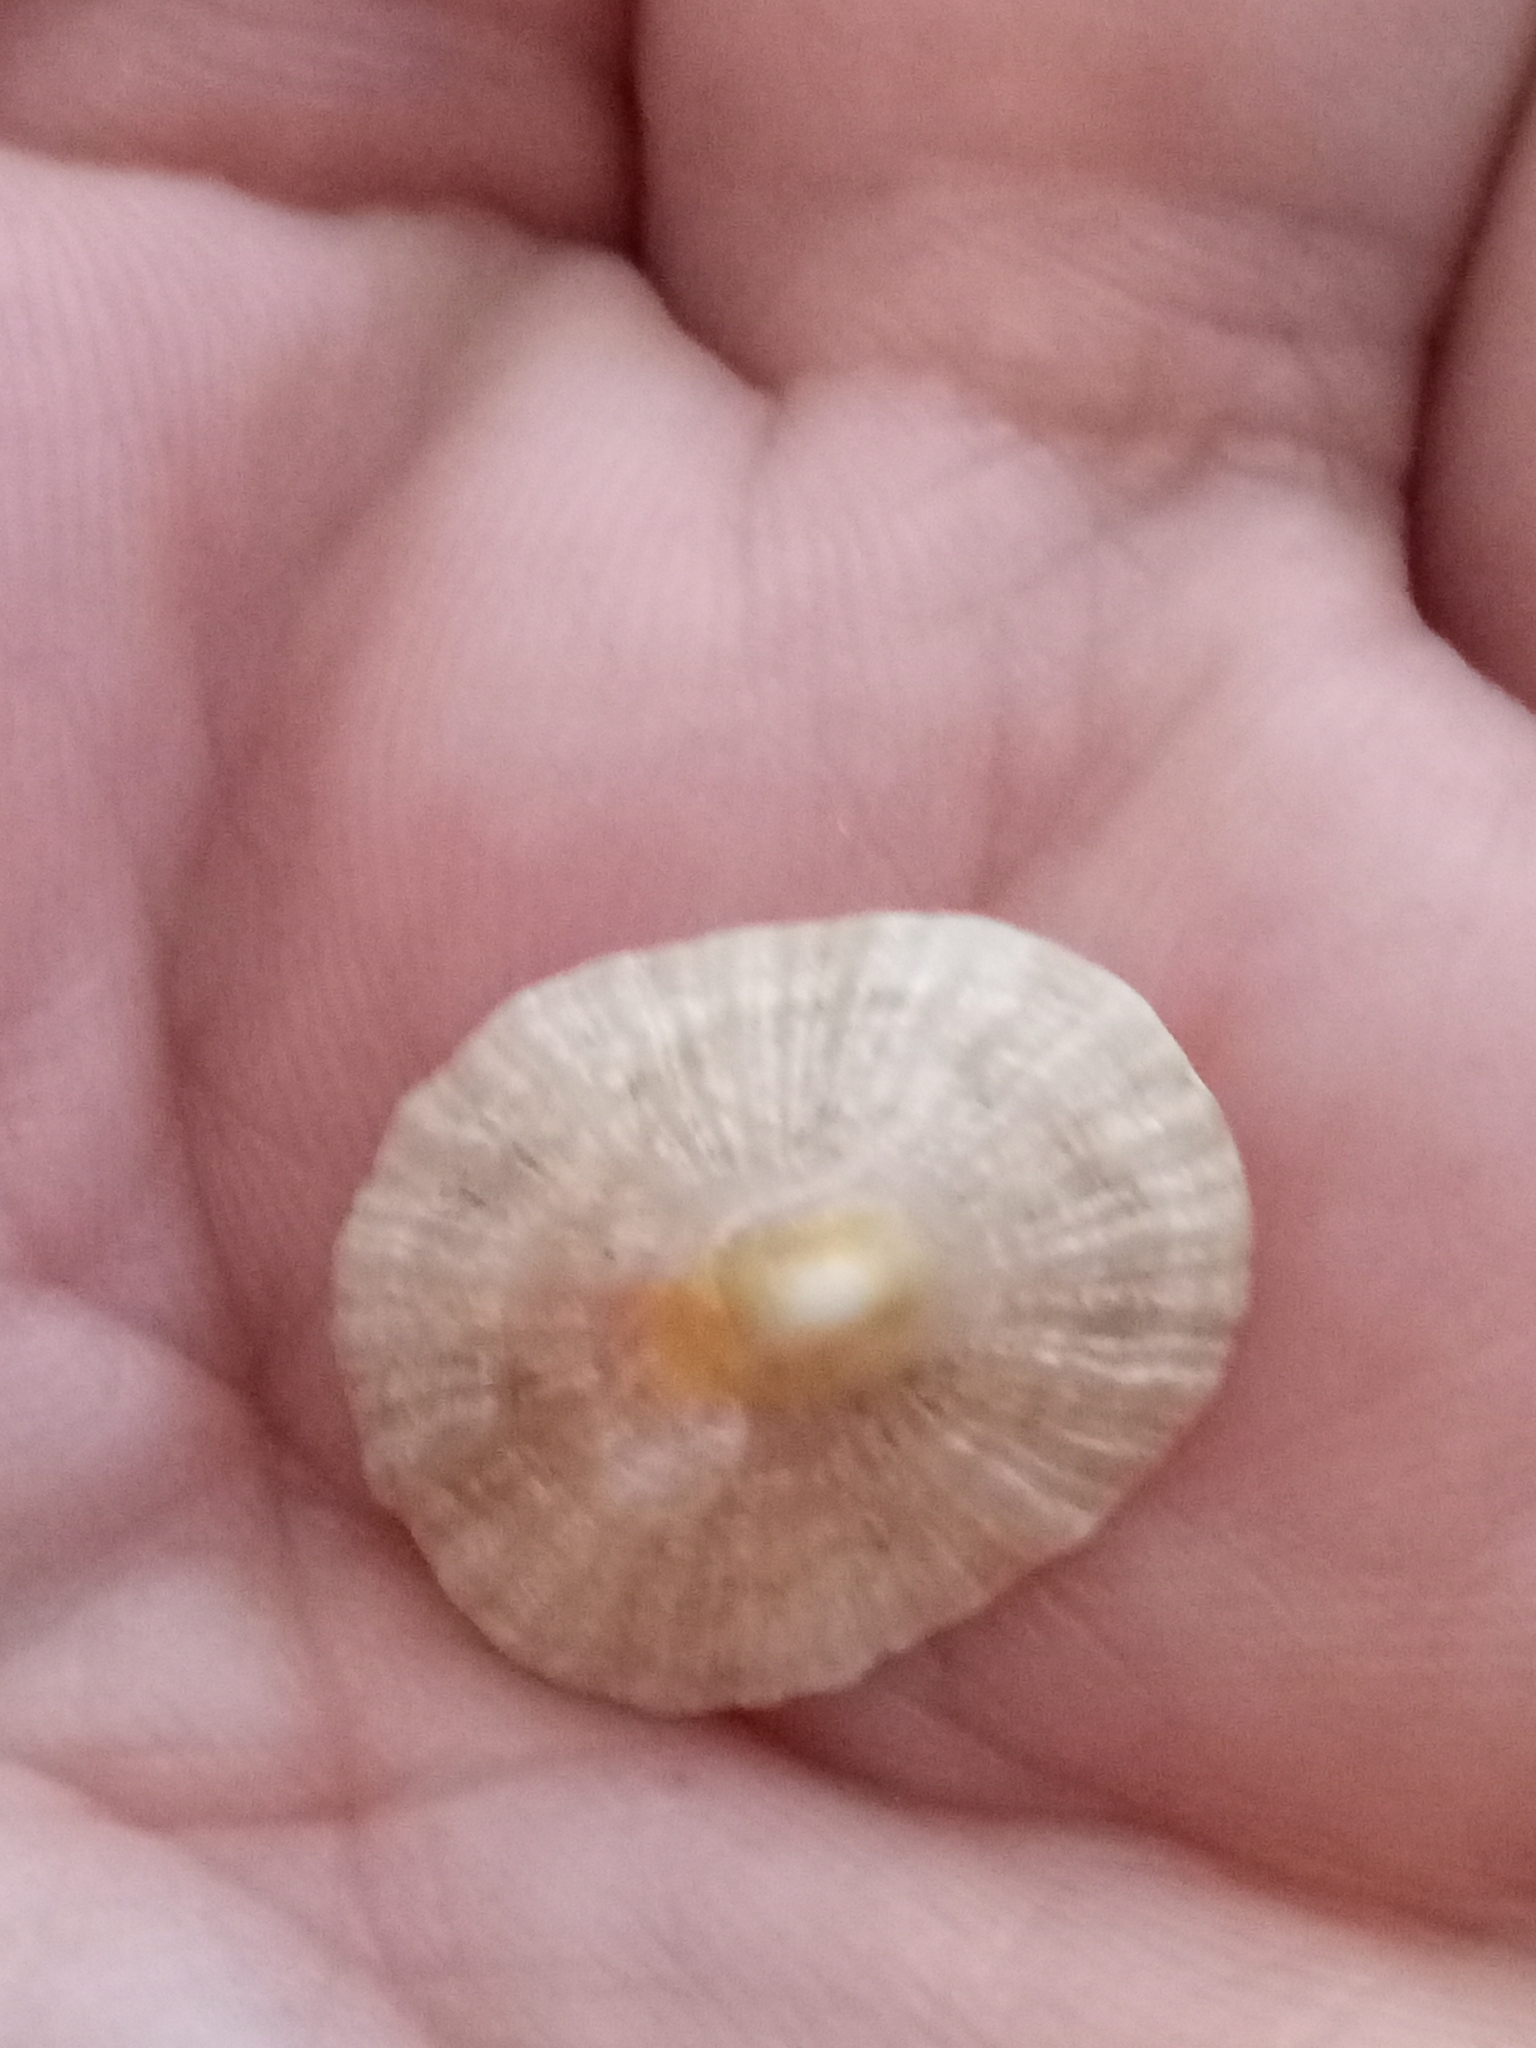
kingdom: Animalia
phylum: Mollusca
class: Gastropoda
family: Patellidae
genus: Patella
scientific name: Patella caerulea
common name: Mediterranean limpet
